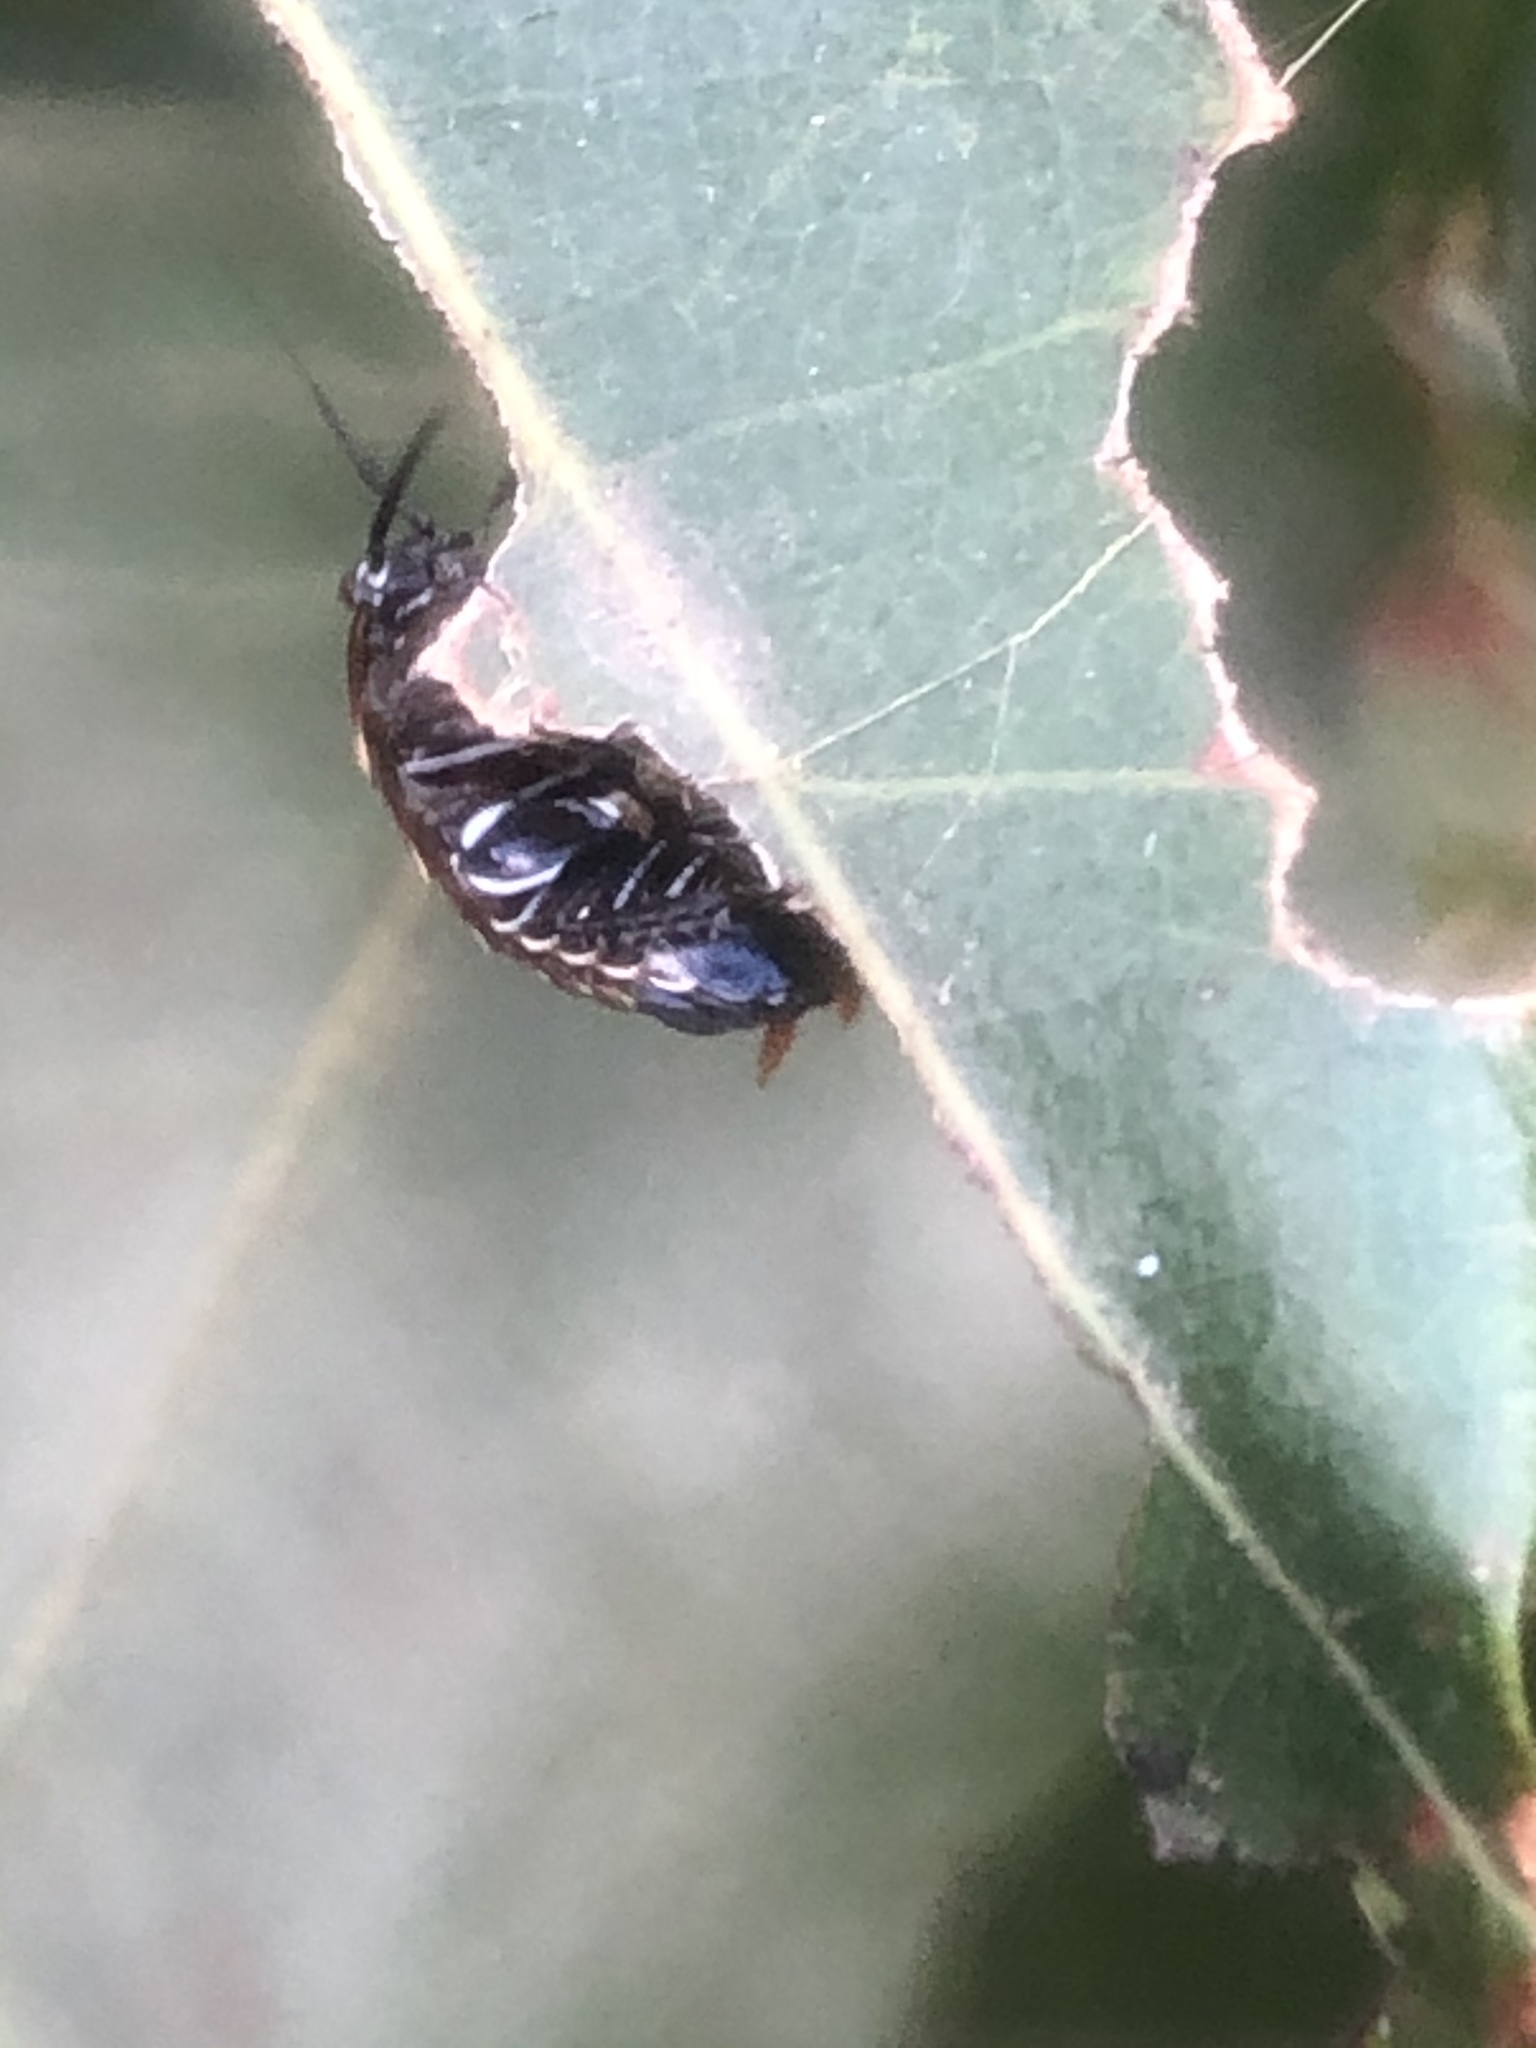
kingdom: Animalia
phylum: Arthropoda
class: Insecta
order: Blattodea
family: Ectobiidae
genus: Ellipsidion
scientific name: Ellipsidion australe
